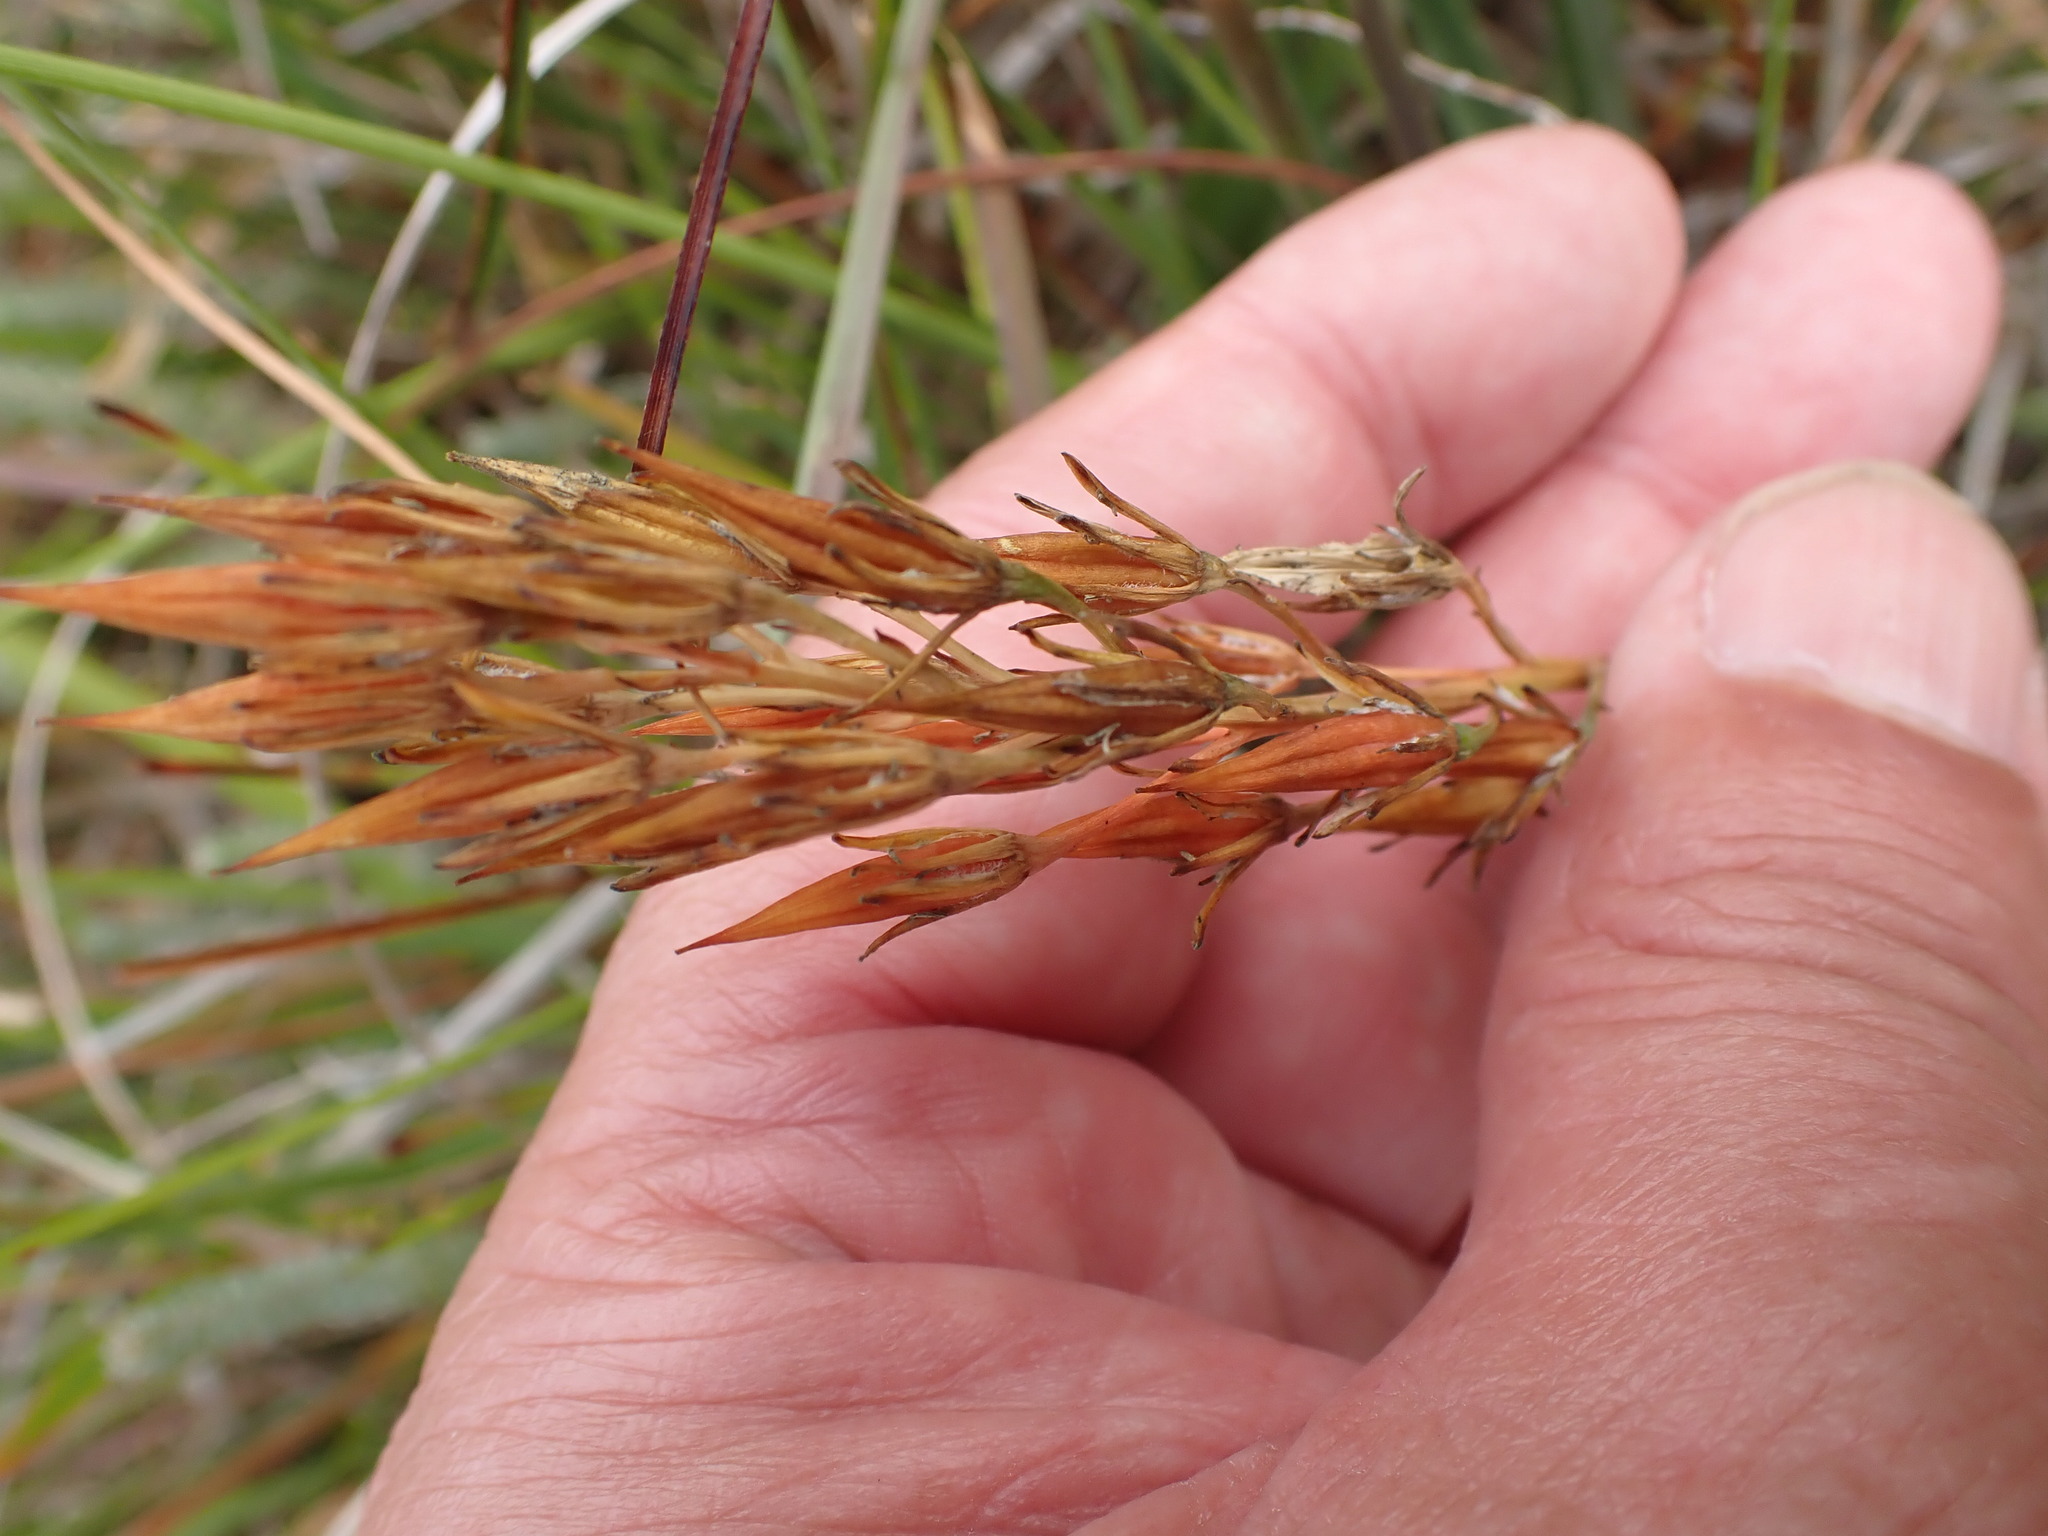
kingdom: Plantae
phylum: Tracheophyta
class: Liliopsida
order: Dioscoreales
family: Nartheciaceae
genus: Narthecium
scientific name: Narthecium ossifragum
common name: Bog asphodel
